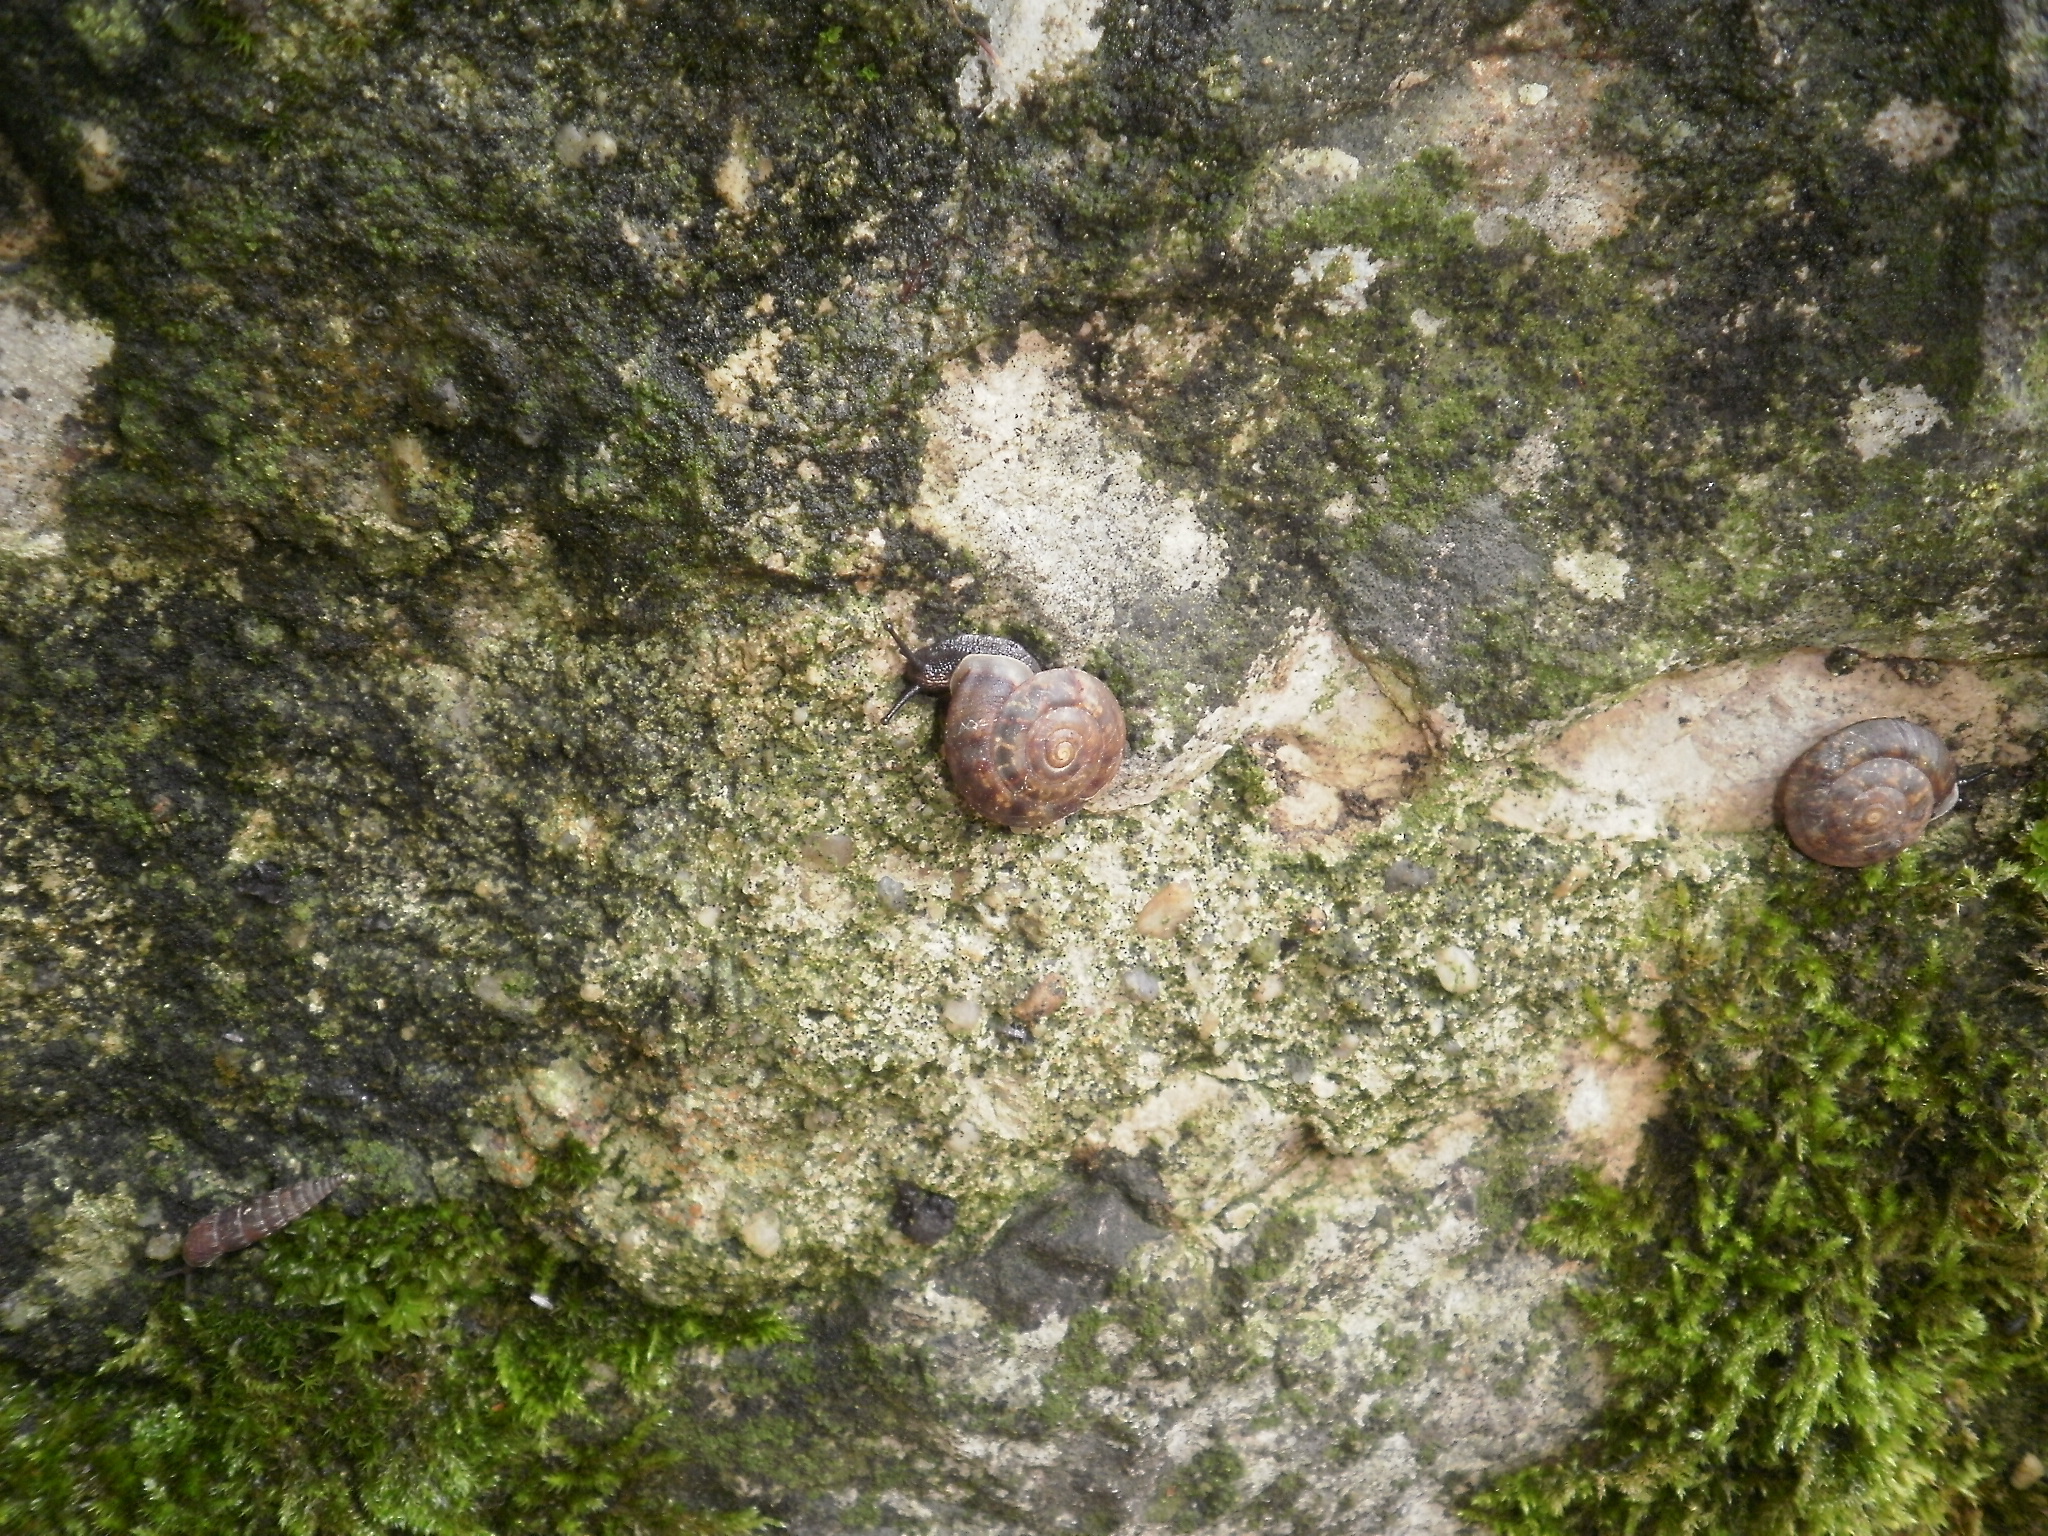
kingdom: Animalia
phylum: Mollusca
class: Gastropoda
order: Stylommatophora
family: Helicidae
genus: Helicigona
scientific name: Helicigona lapicida
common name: Lapidary snail
